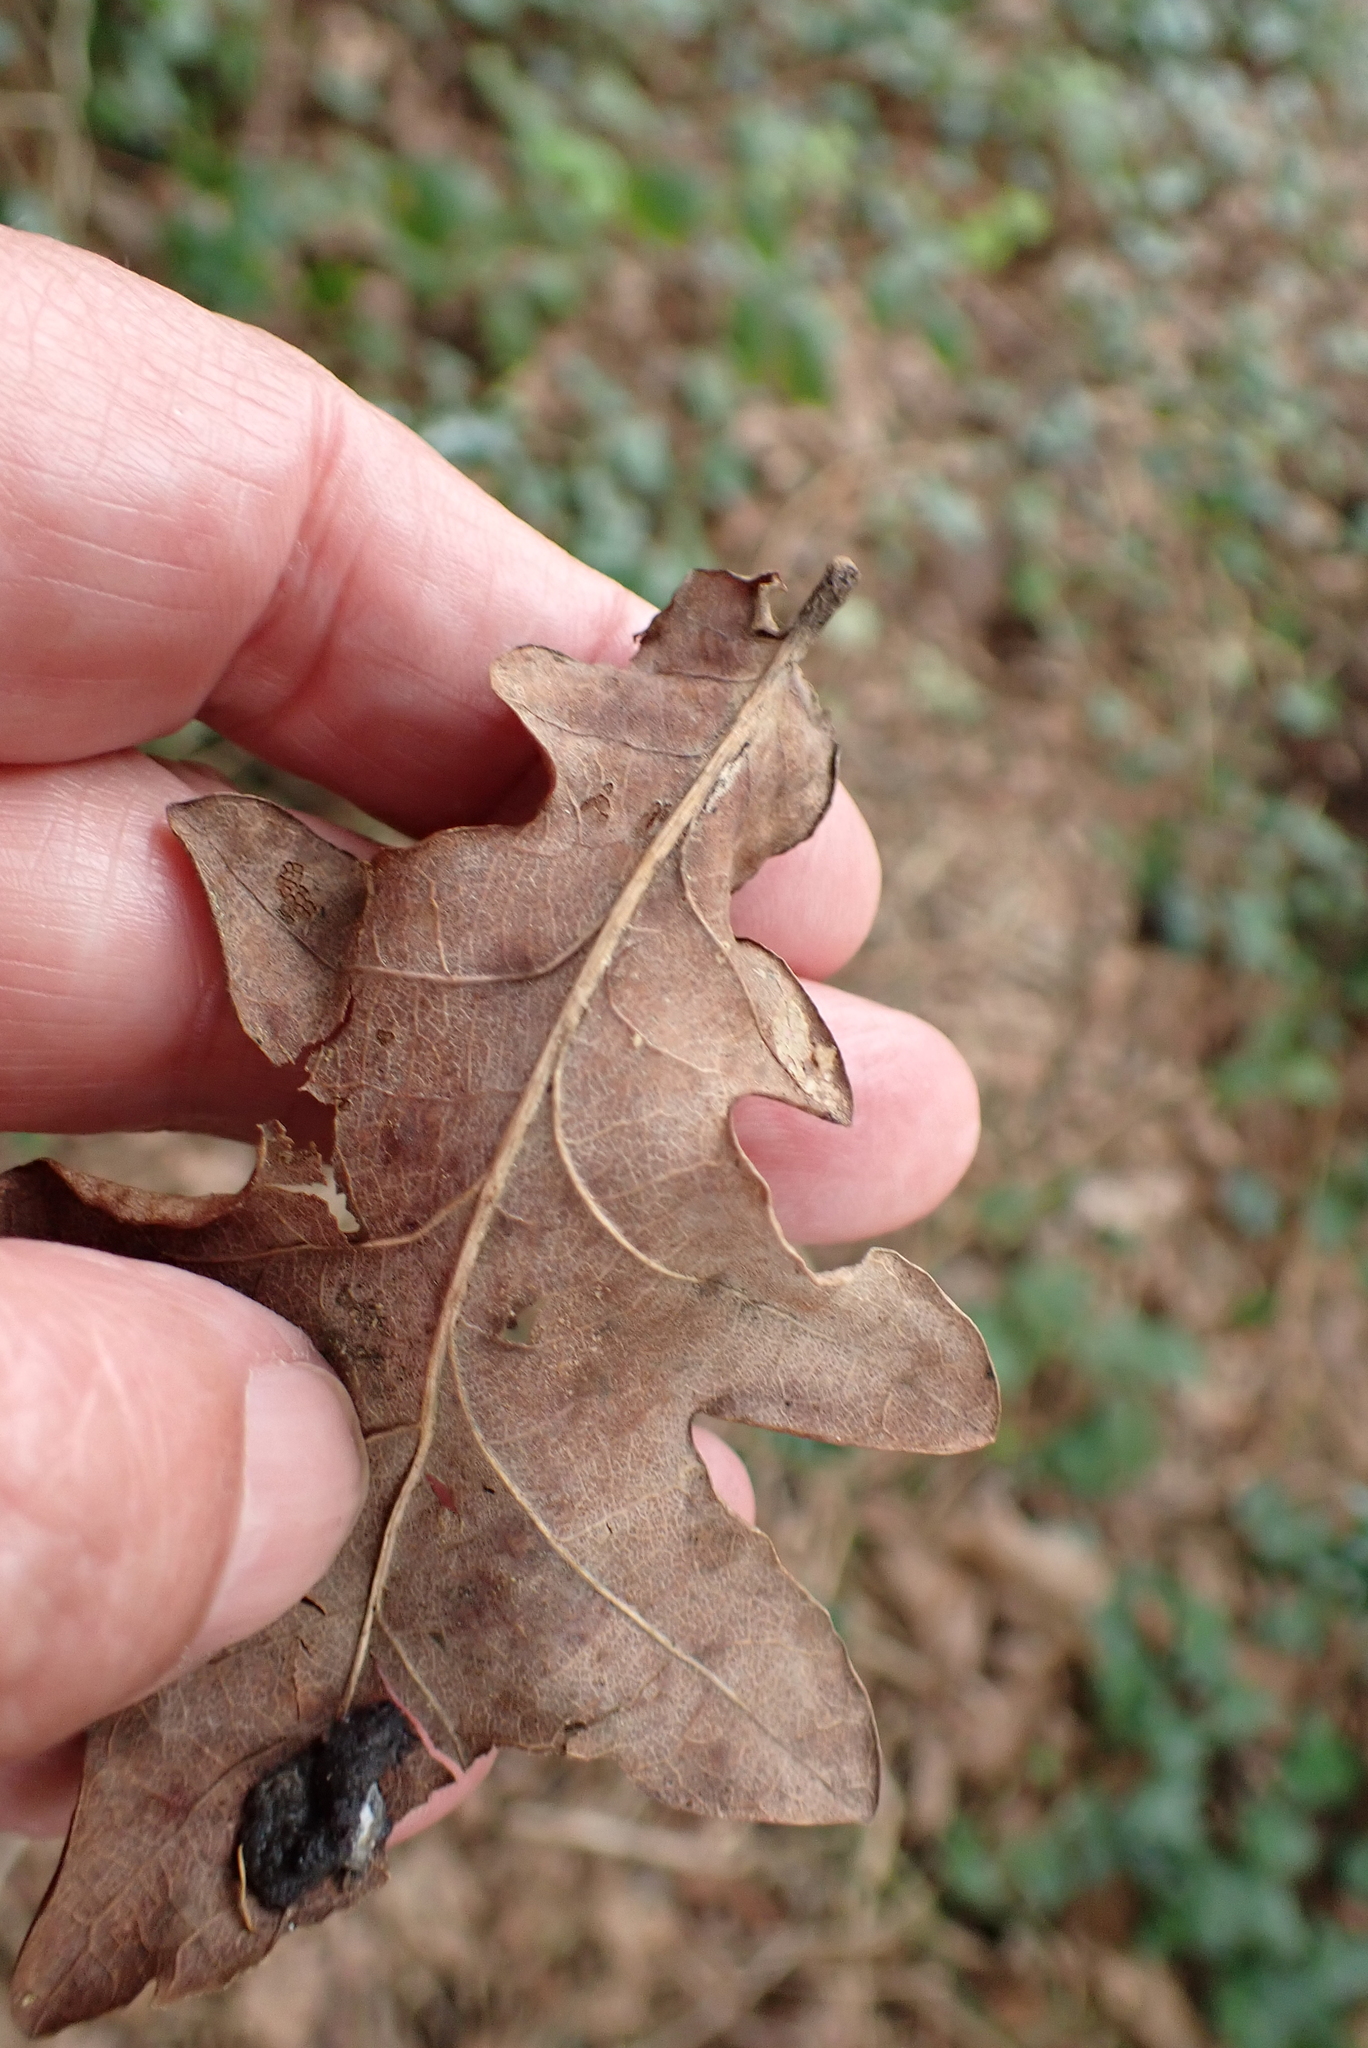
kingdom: Plantae
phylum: Tracheophyta
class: Magnoliopsida
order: Fagales
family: Fagaceae
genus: Quercus
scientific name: Quercus robur
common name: Pedunculate oak
